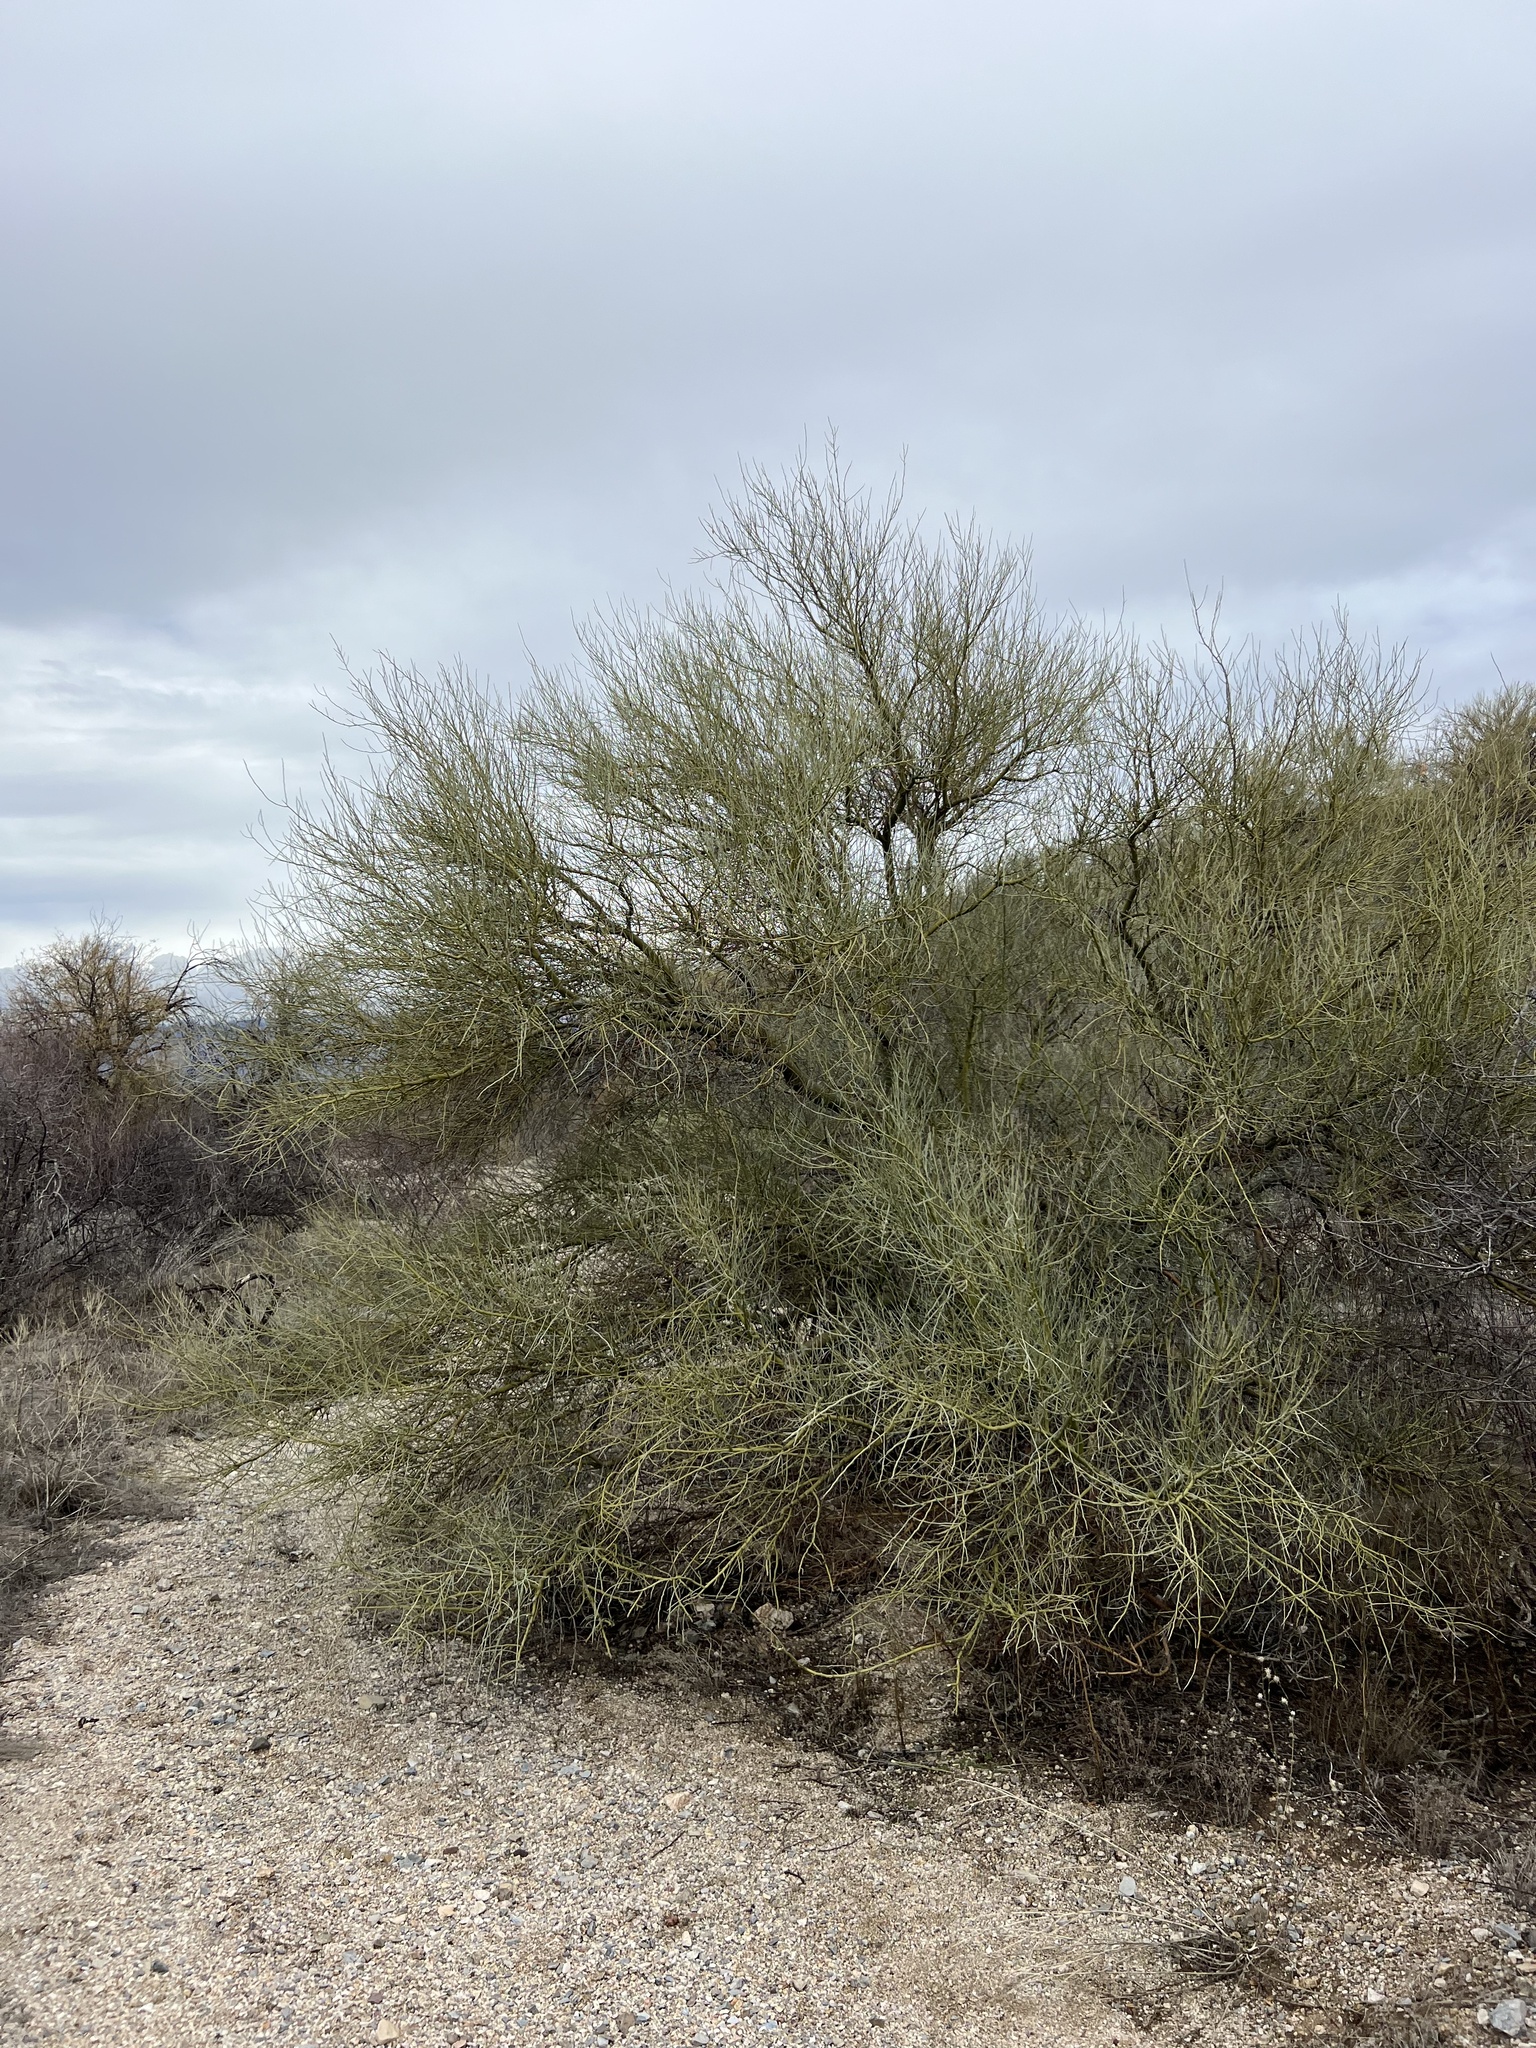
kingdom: Plantae
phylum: Tracheophyta
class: Magnoliopsida
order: Fabales
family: Fabaceae
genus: Parkinsonia
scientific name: Parkinsonia florida
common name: Blue paloverde
